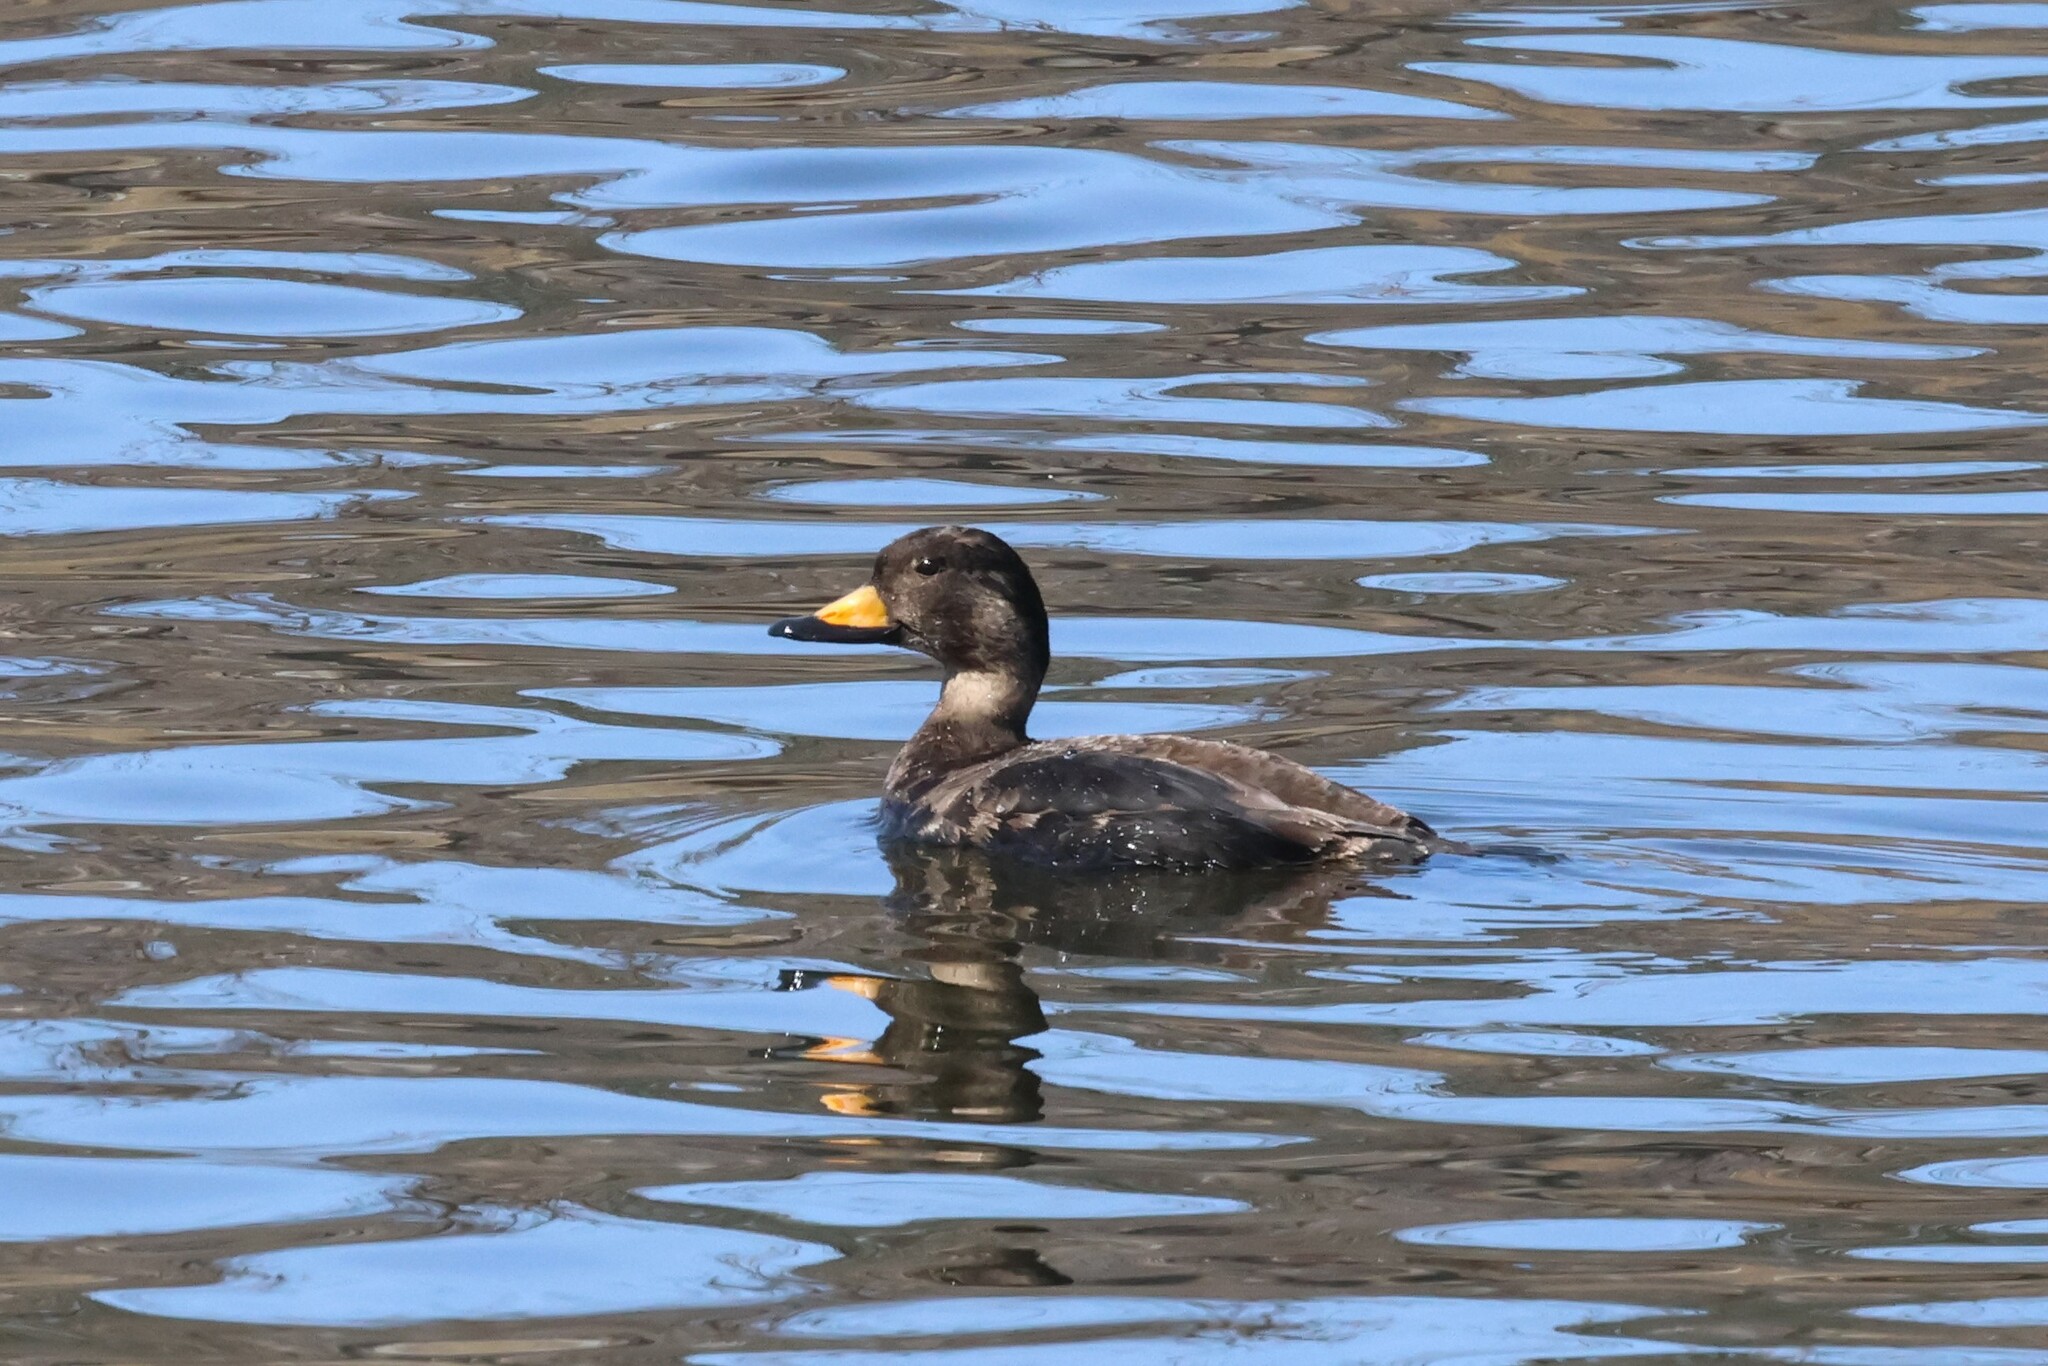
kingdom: Animalia
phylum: Chordata
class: Aves
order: Anseriformes
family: Anatidae
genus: Melanitta
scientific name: Melanitta americana
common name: Black scoter
